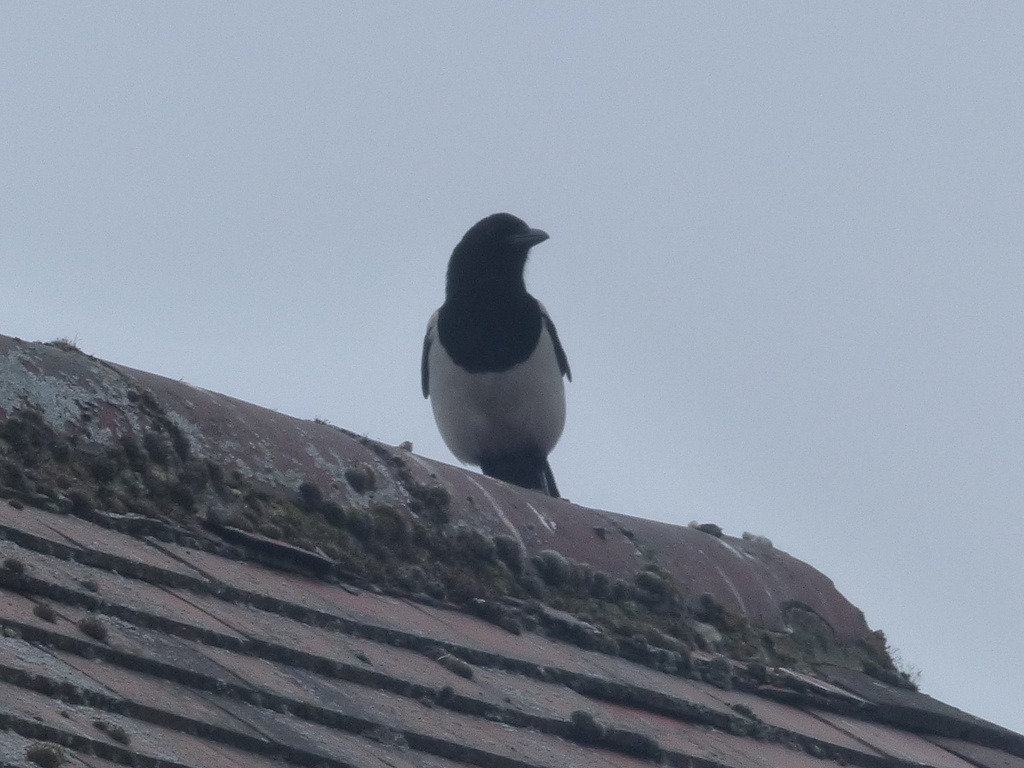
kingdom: Animalia
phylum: Chordata
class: Aves
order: Passeriformes
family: Corvidae
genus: Pica
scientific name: Pica pica
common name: Eurasian magpie
